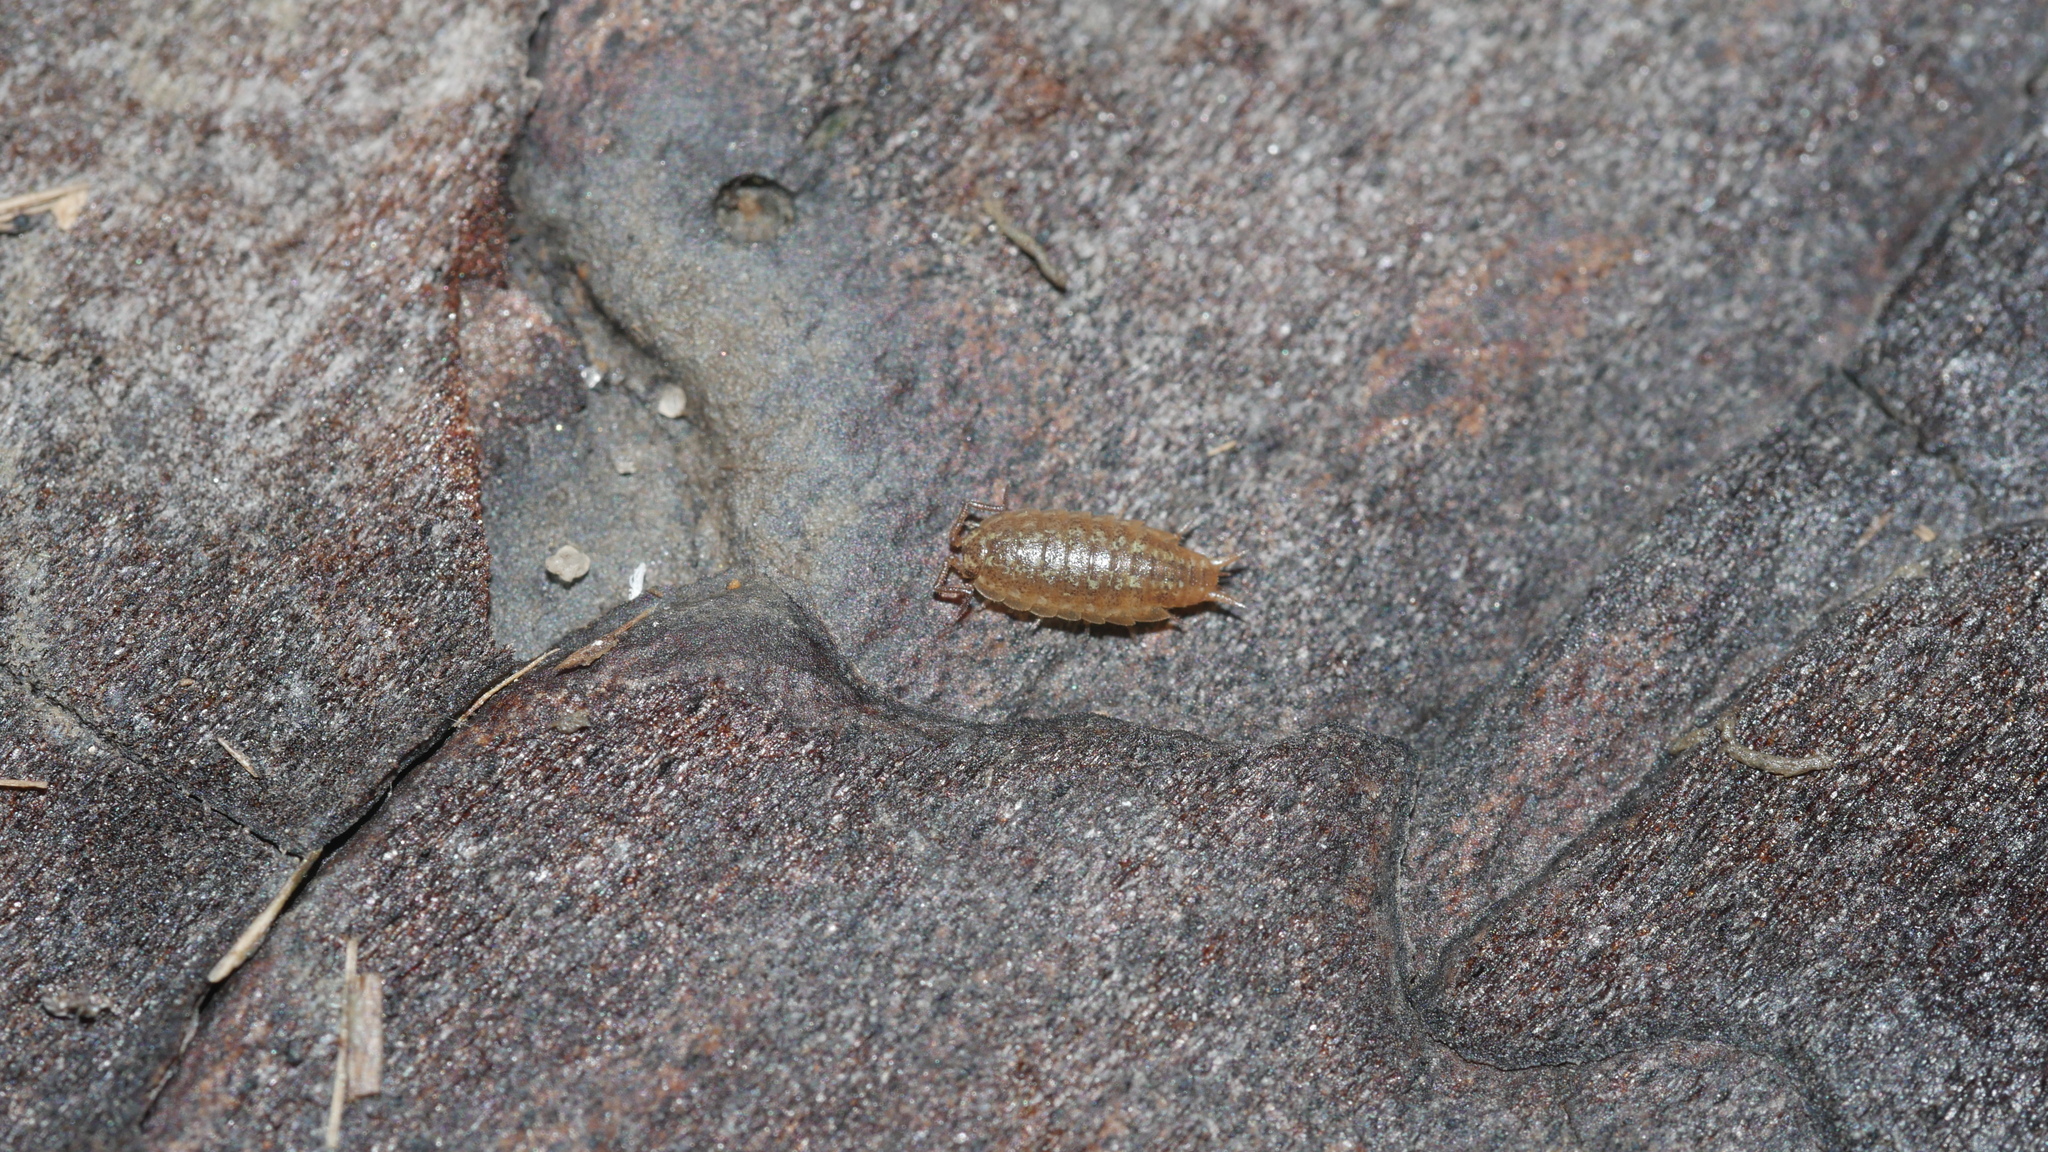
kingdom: Animalia
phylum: Arthropoda
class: Malacostraca
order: Isopoda
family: Halophilosciidae
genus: Littorophiloscia
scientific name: Littorophiloscia vittata
